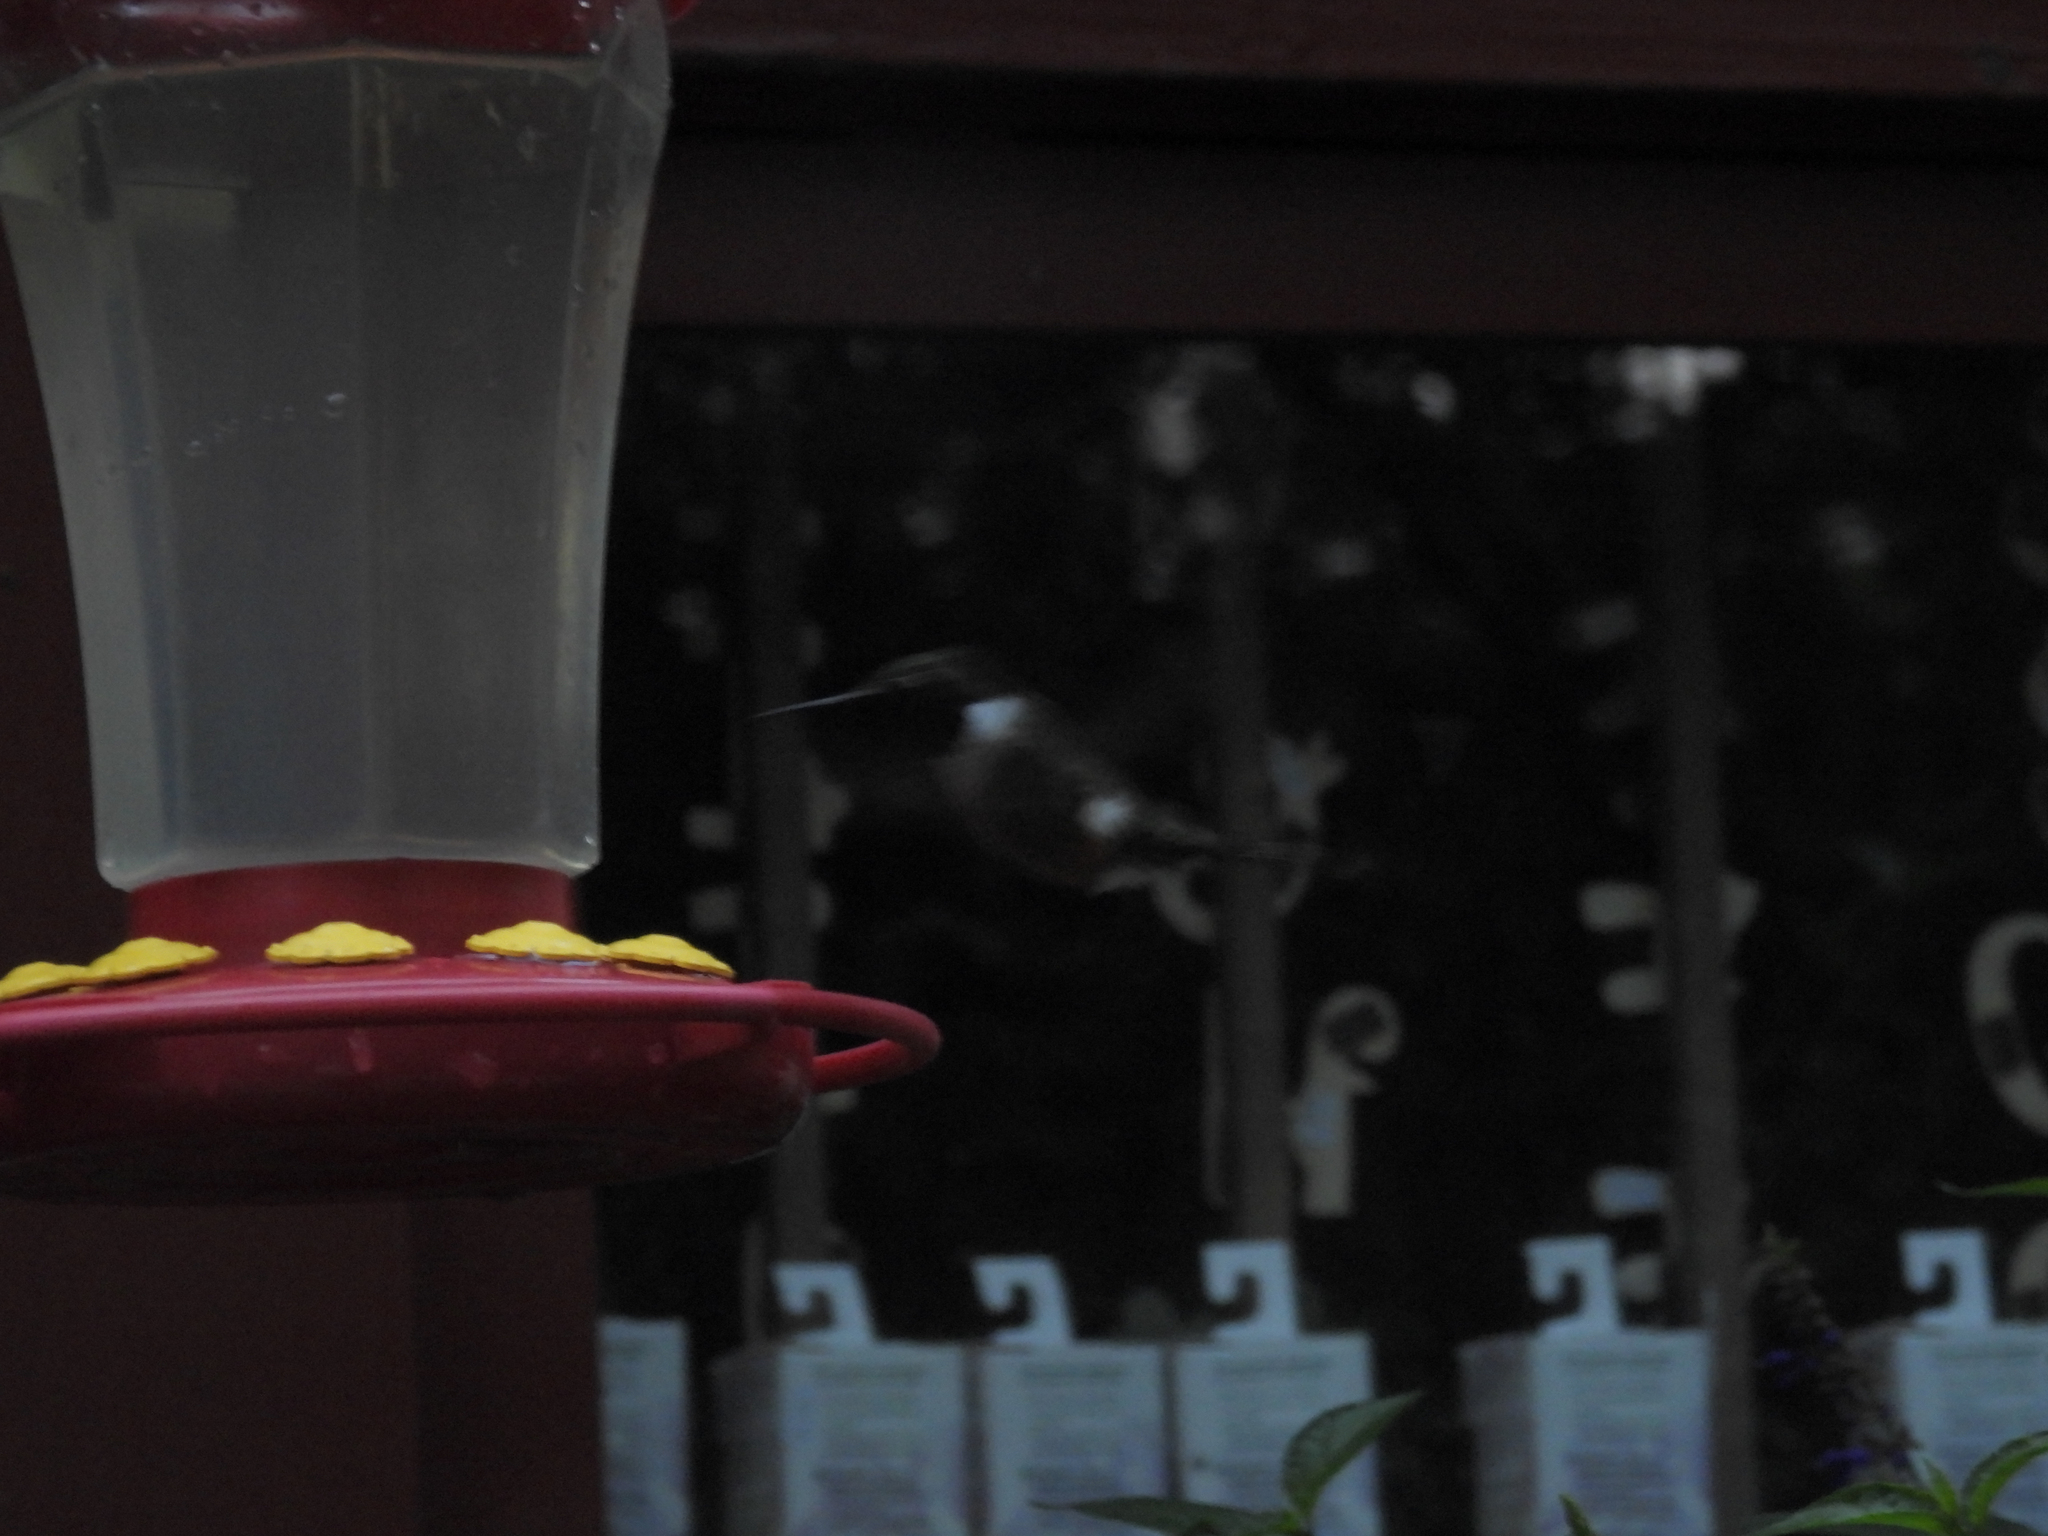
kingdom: Animalia
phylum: Chordata
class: Aves
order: Apodiformes
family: Trochilidae
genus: Calliphlox
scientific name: Calliphlox bryantae
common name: Magenta-throated woodstar
